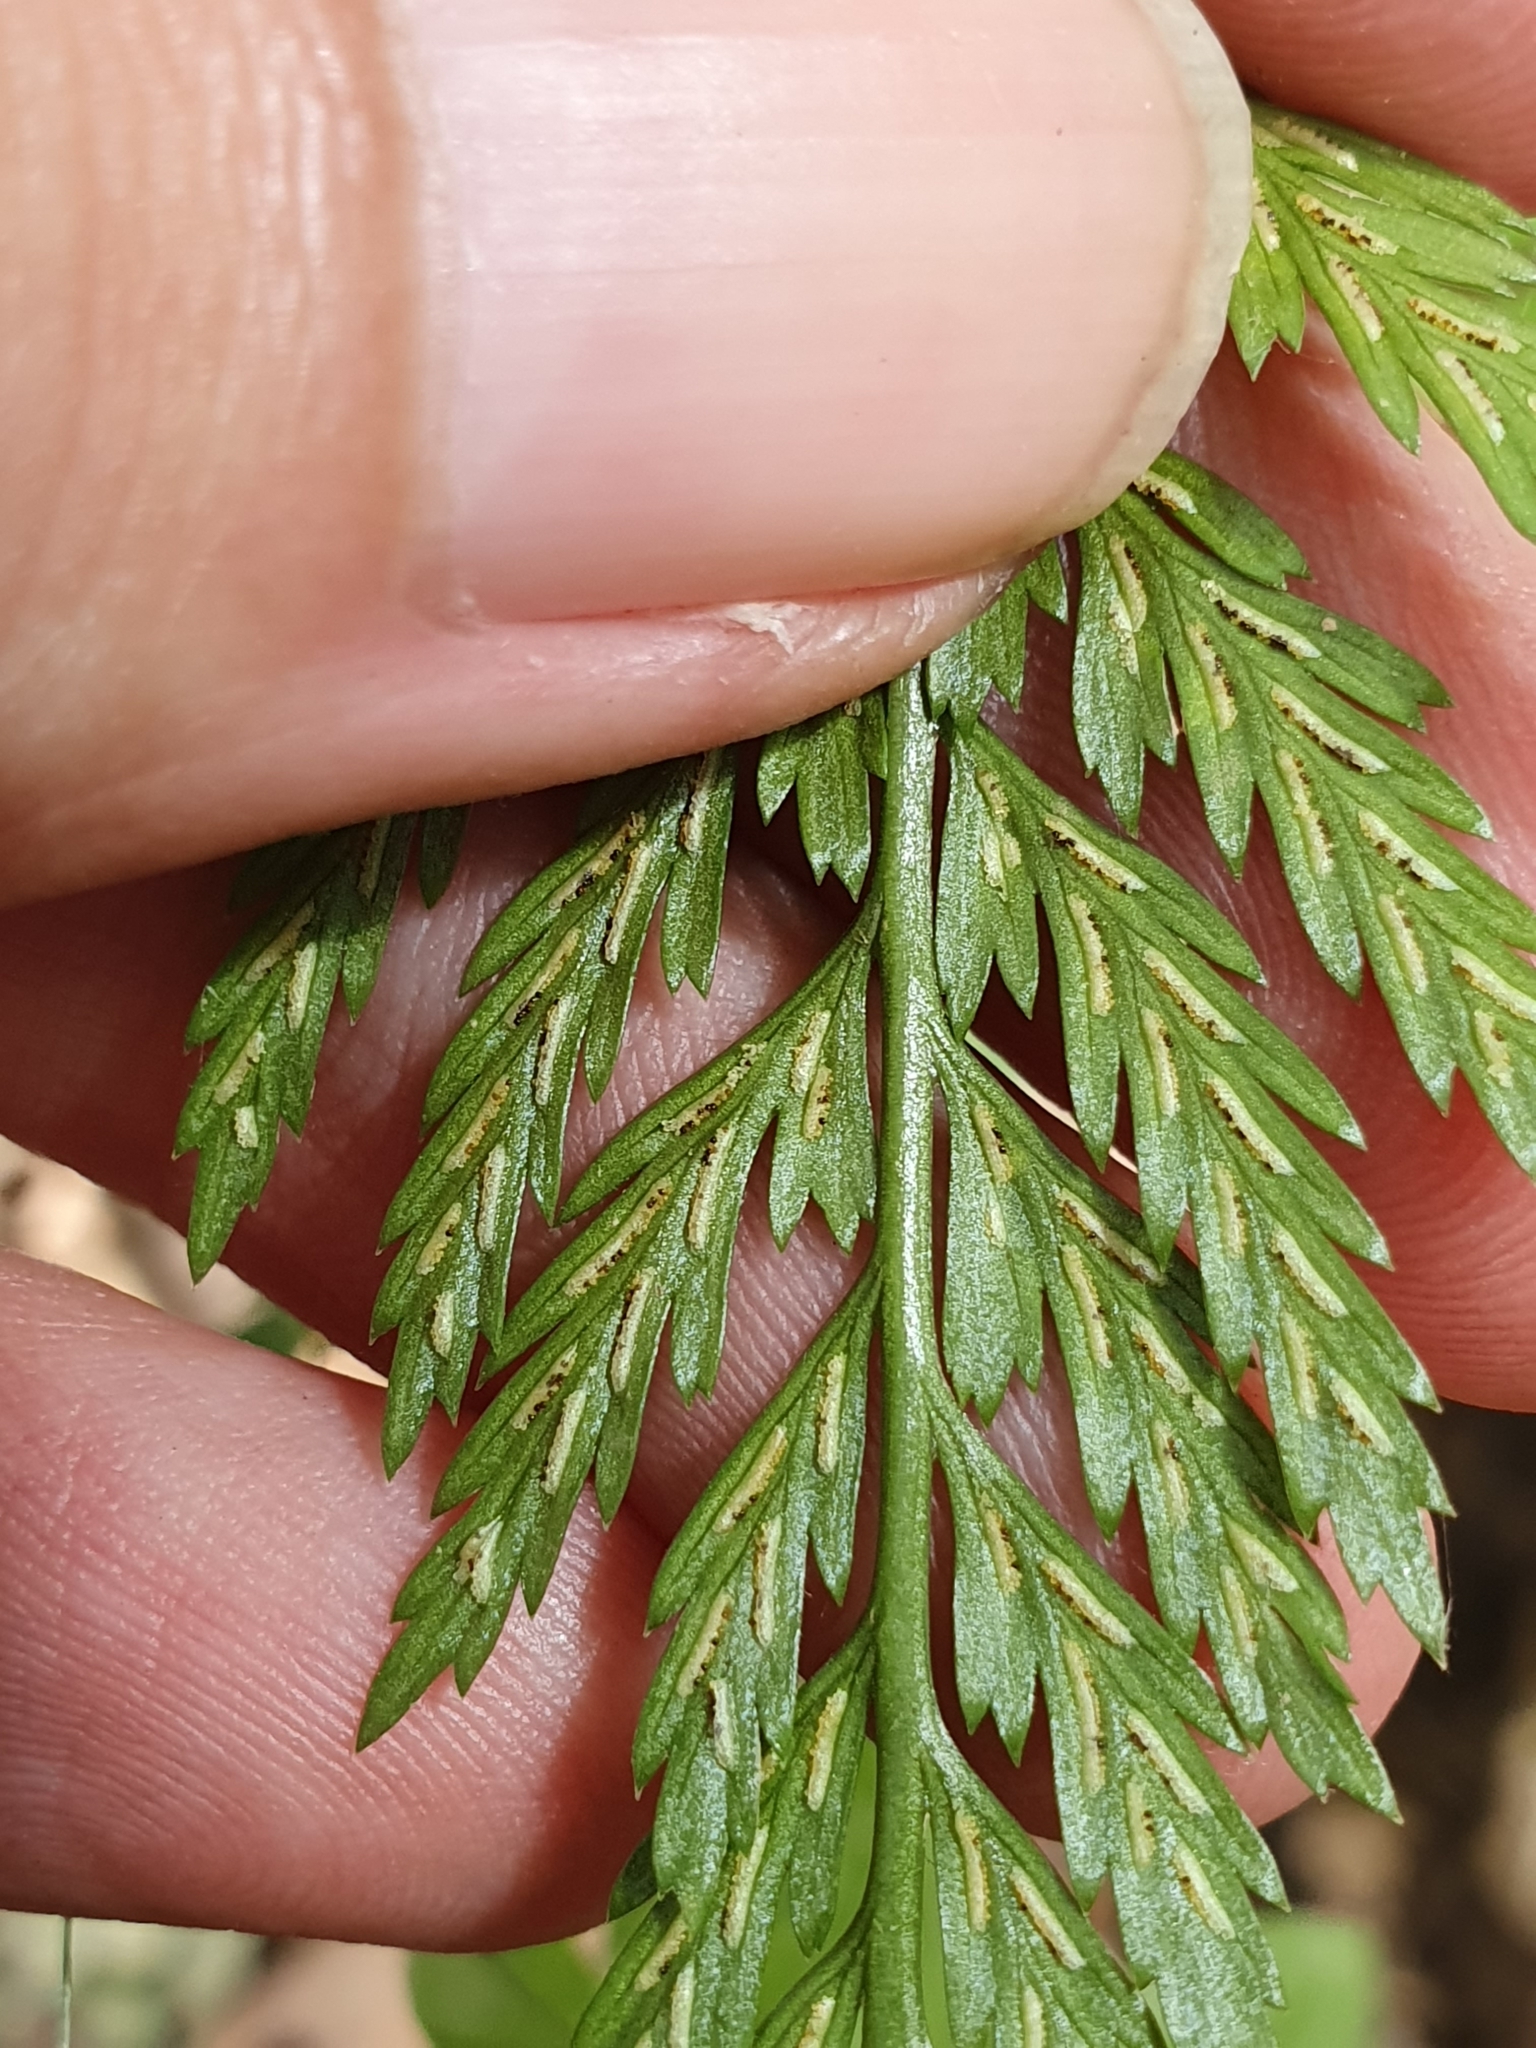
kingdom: Plantae
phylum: Tracheophyta
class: Polypodiopsida
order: Polypodiales
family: Aspleniaceae
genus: Asplenium
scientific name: Asplenium onopteris
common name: Irish spleenwort
